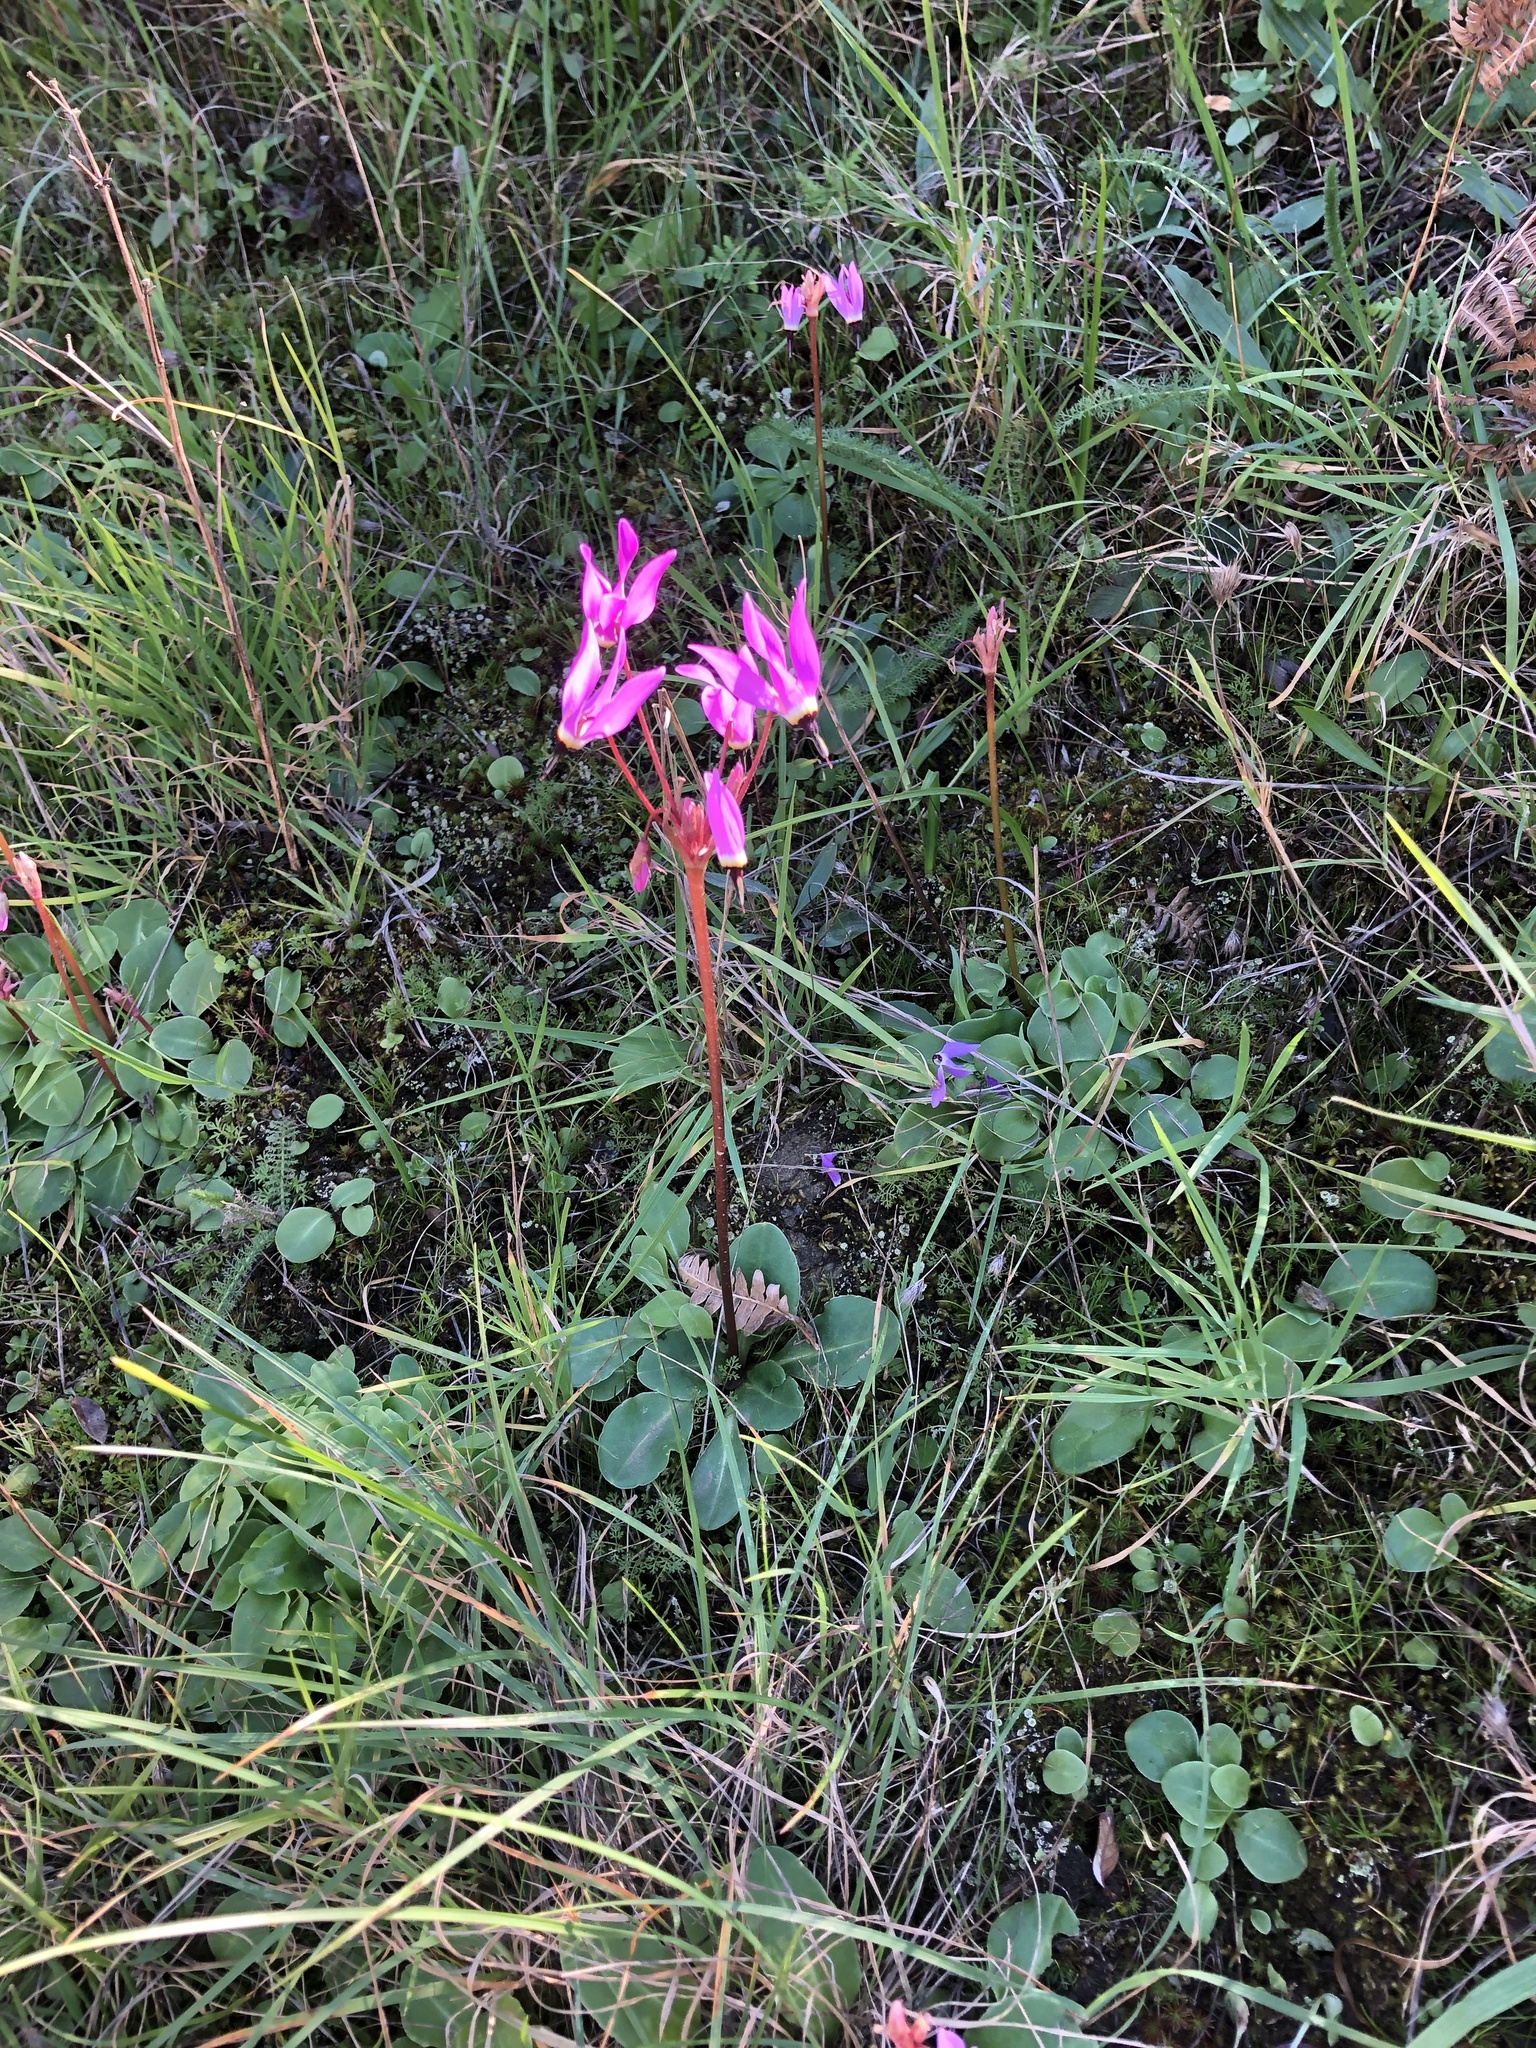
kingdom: Plantae
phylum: Tracheophyta
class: Magnoliopsida
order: Ericales
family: Primulaceae
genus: Dodecatheon
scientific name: Dodecatheon hendersonii
